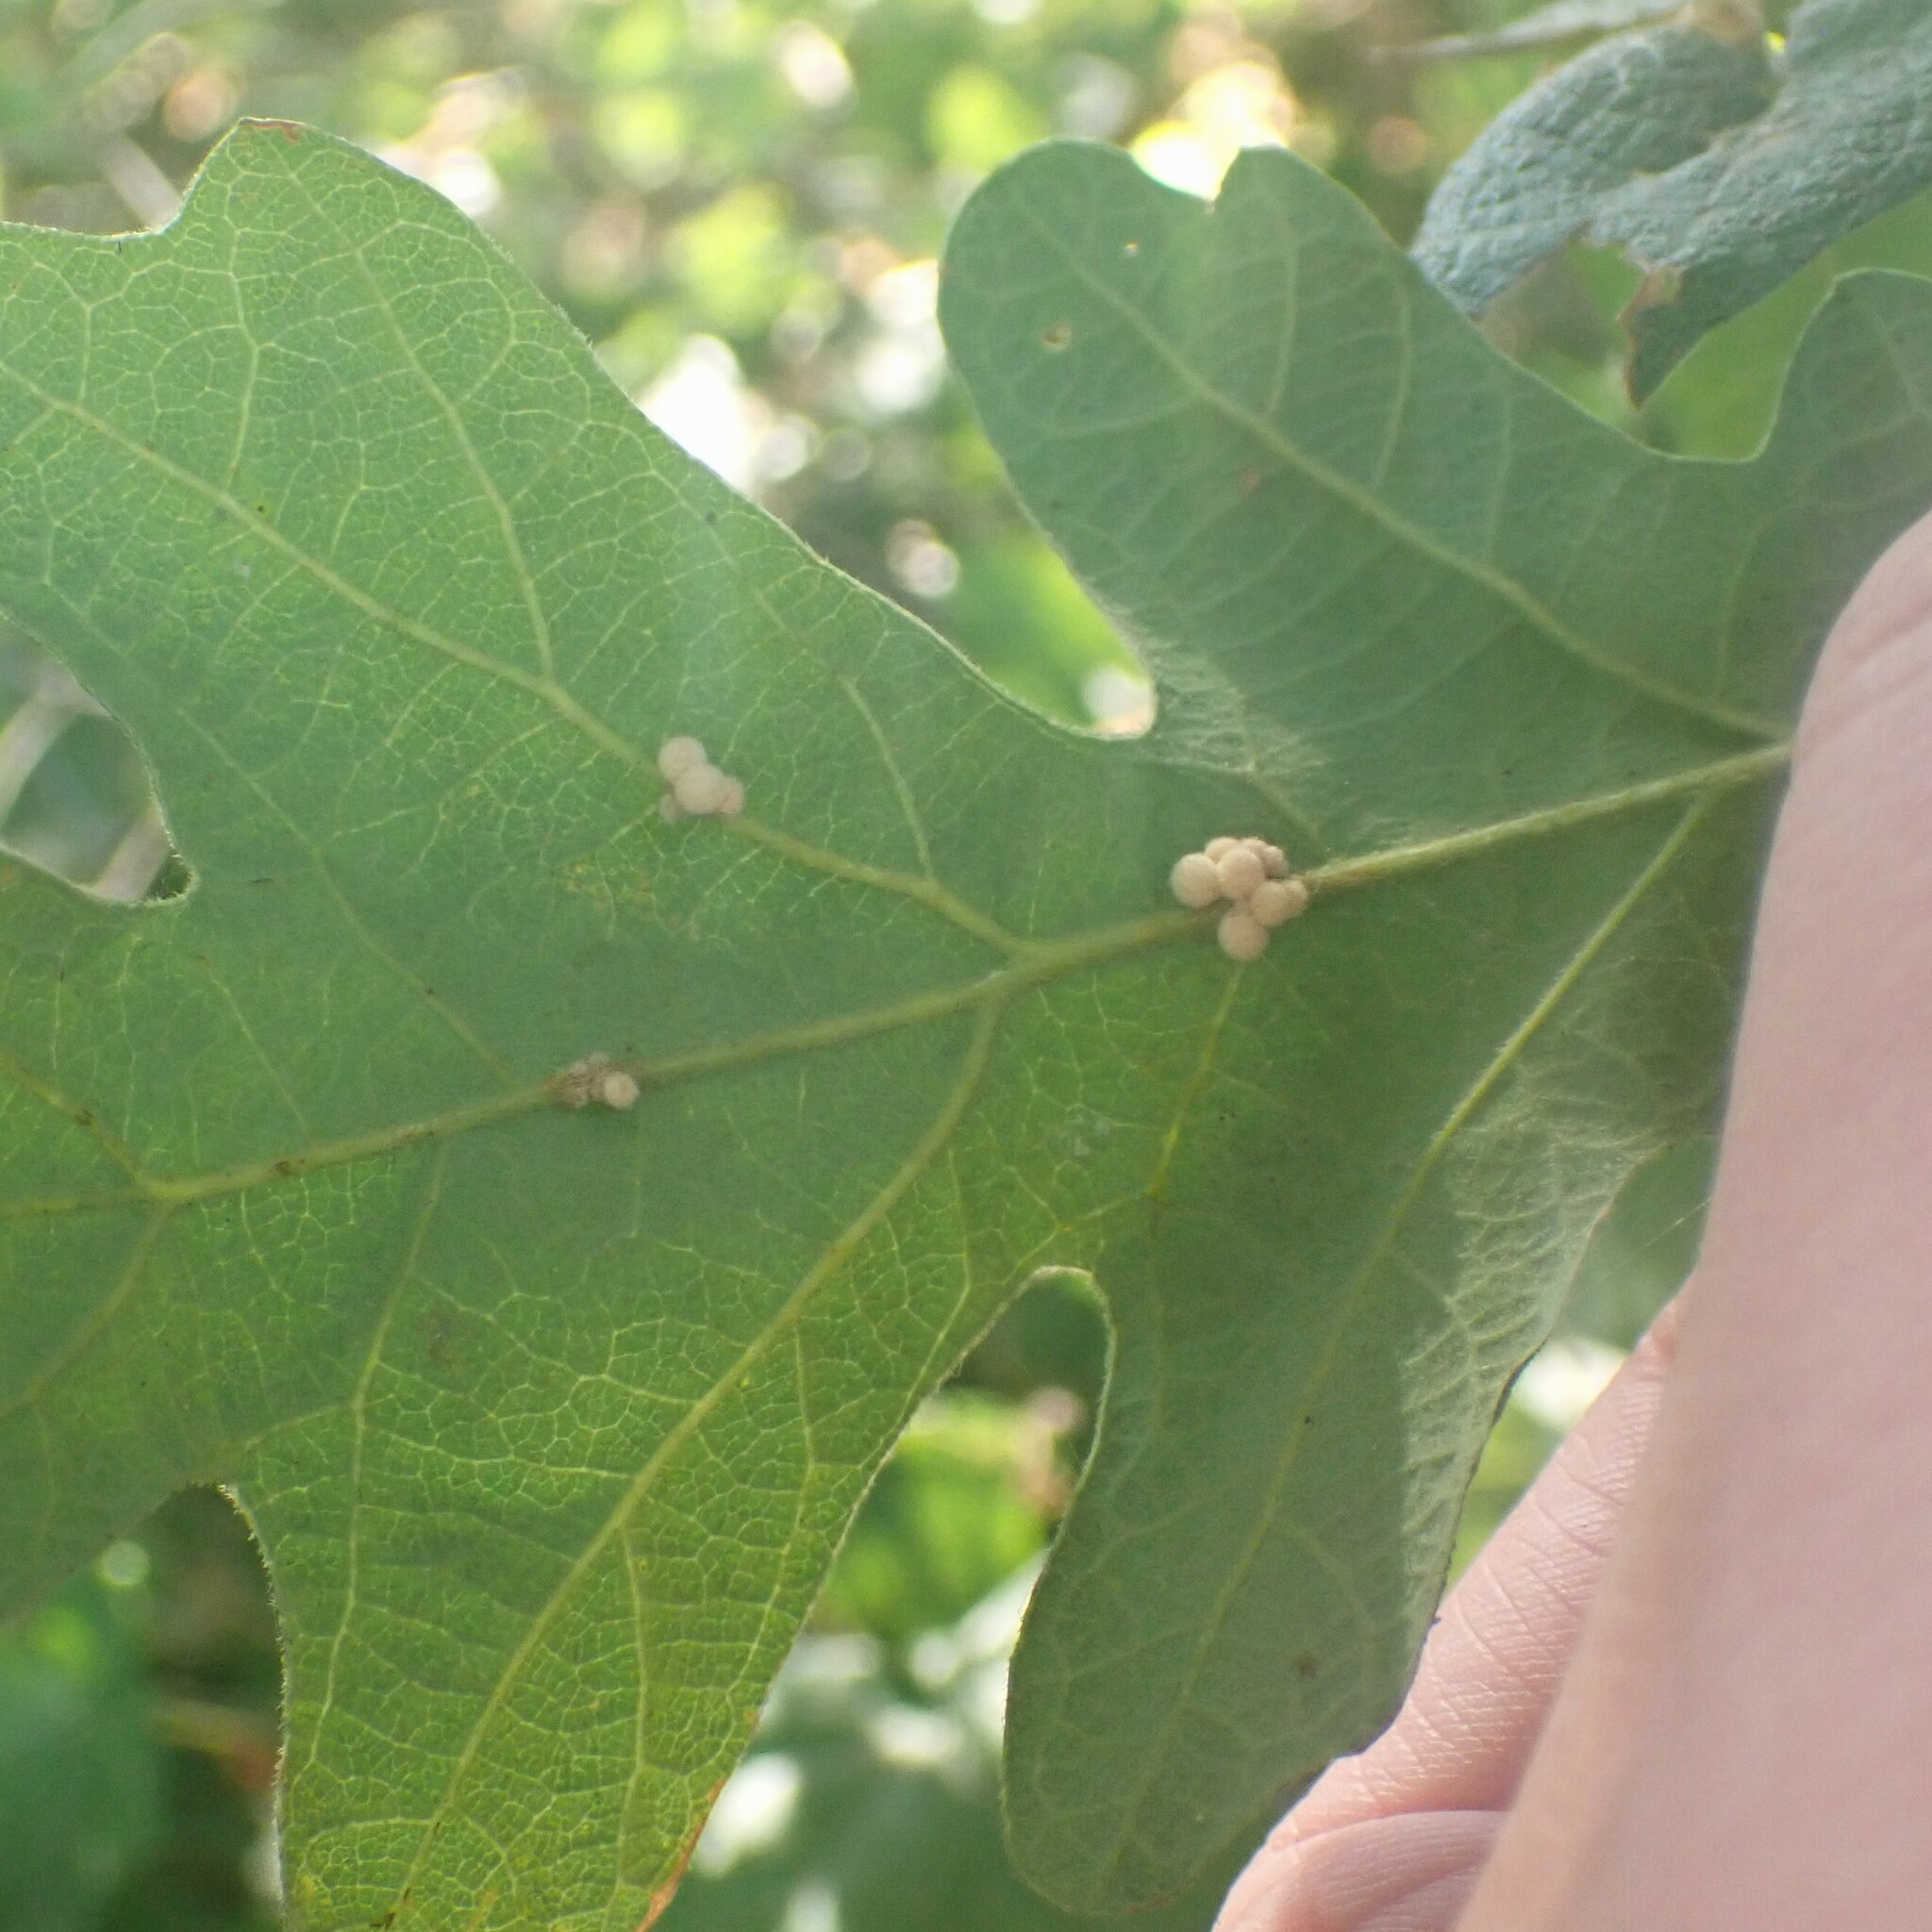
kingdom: Animalia
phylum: Arthropoda
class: Insecta
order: Hymenoptera
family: Cynipidae
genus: Andricus
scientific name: Andricus
